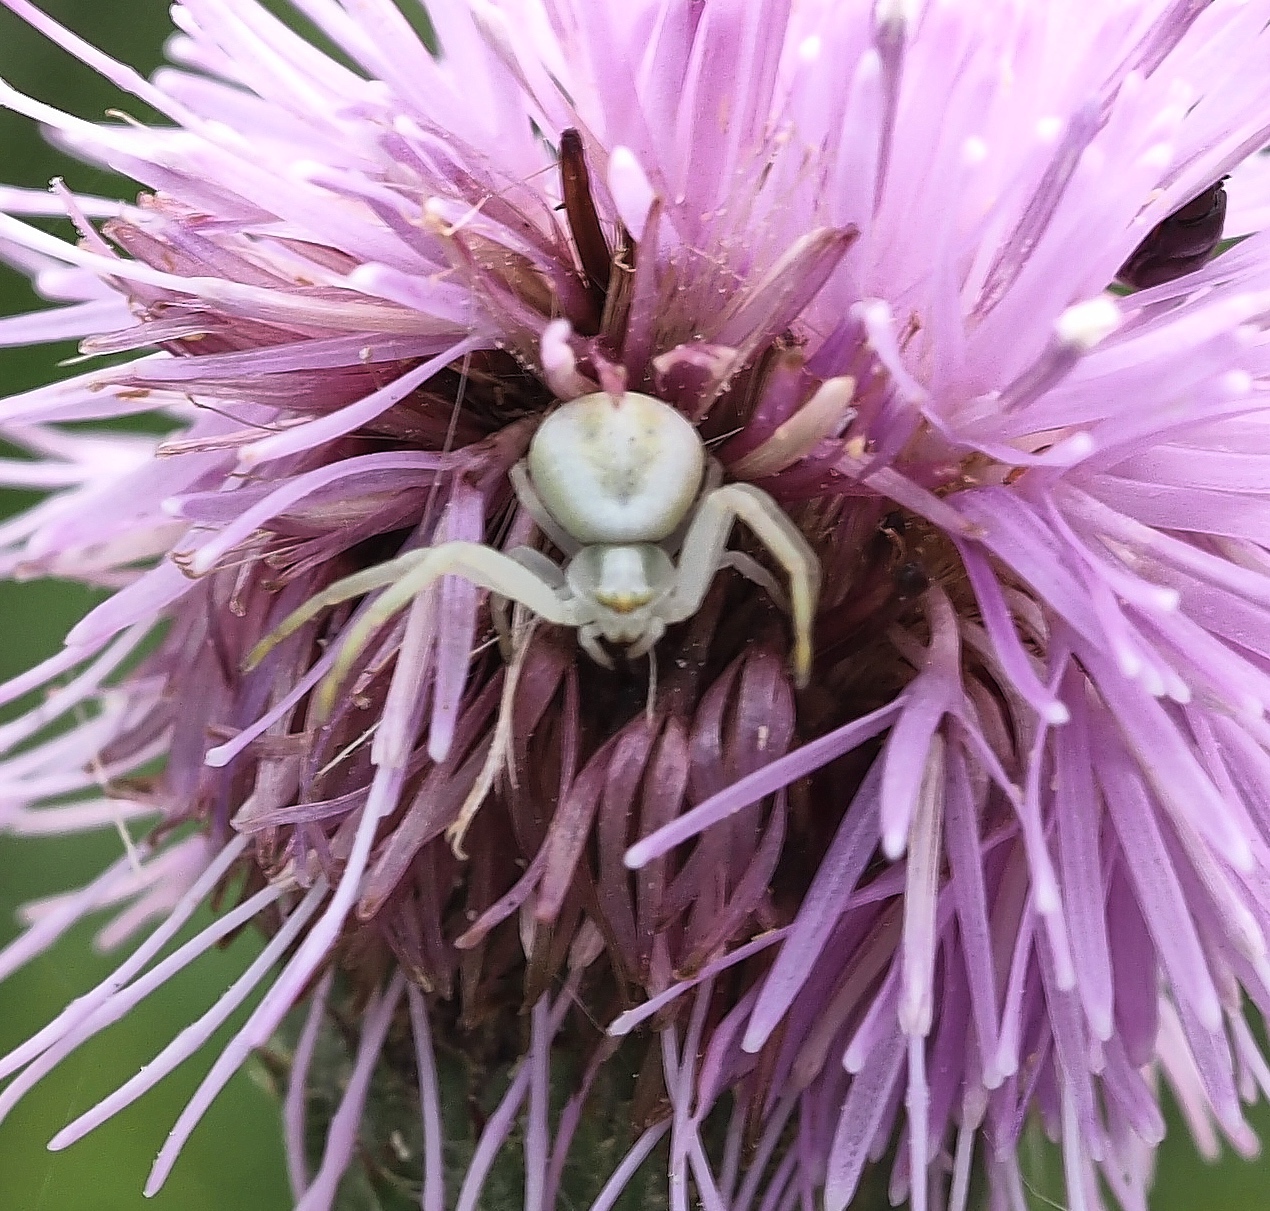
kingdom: Animalia
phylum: Arthropoda
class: Arachnida
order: Araneae
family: Thomisidae
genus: Misumena
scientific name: Misumena vatia
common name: Goldenrod crab spider
